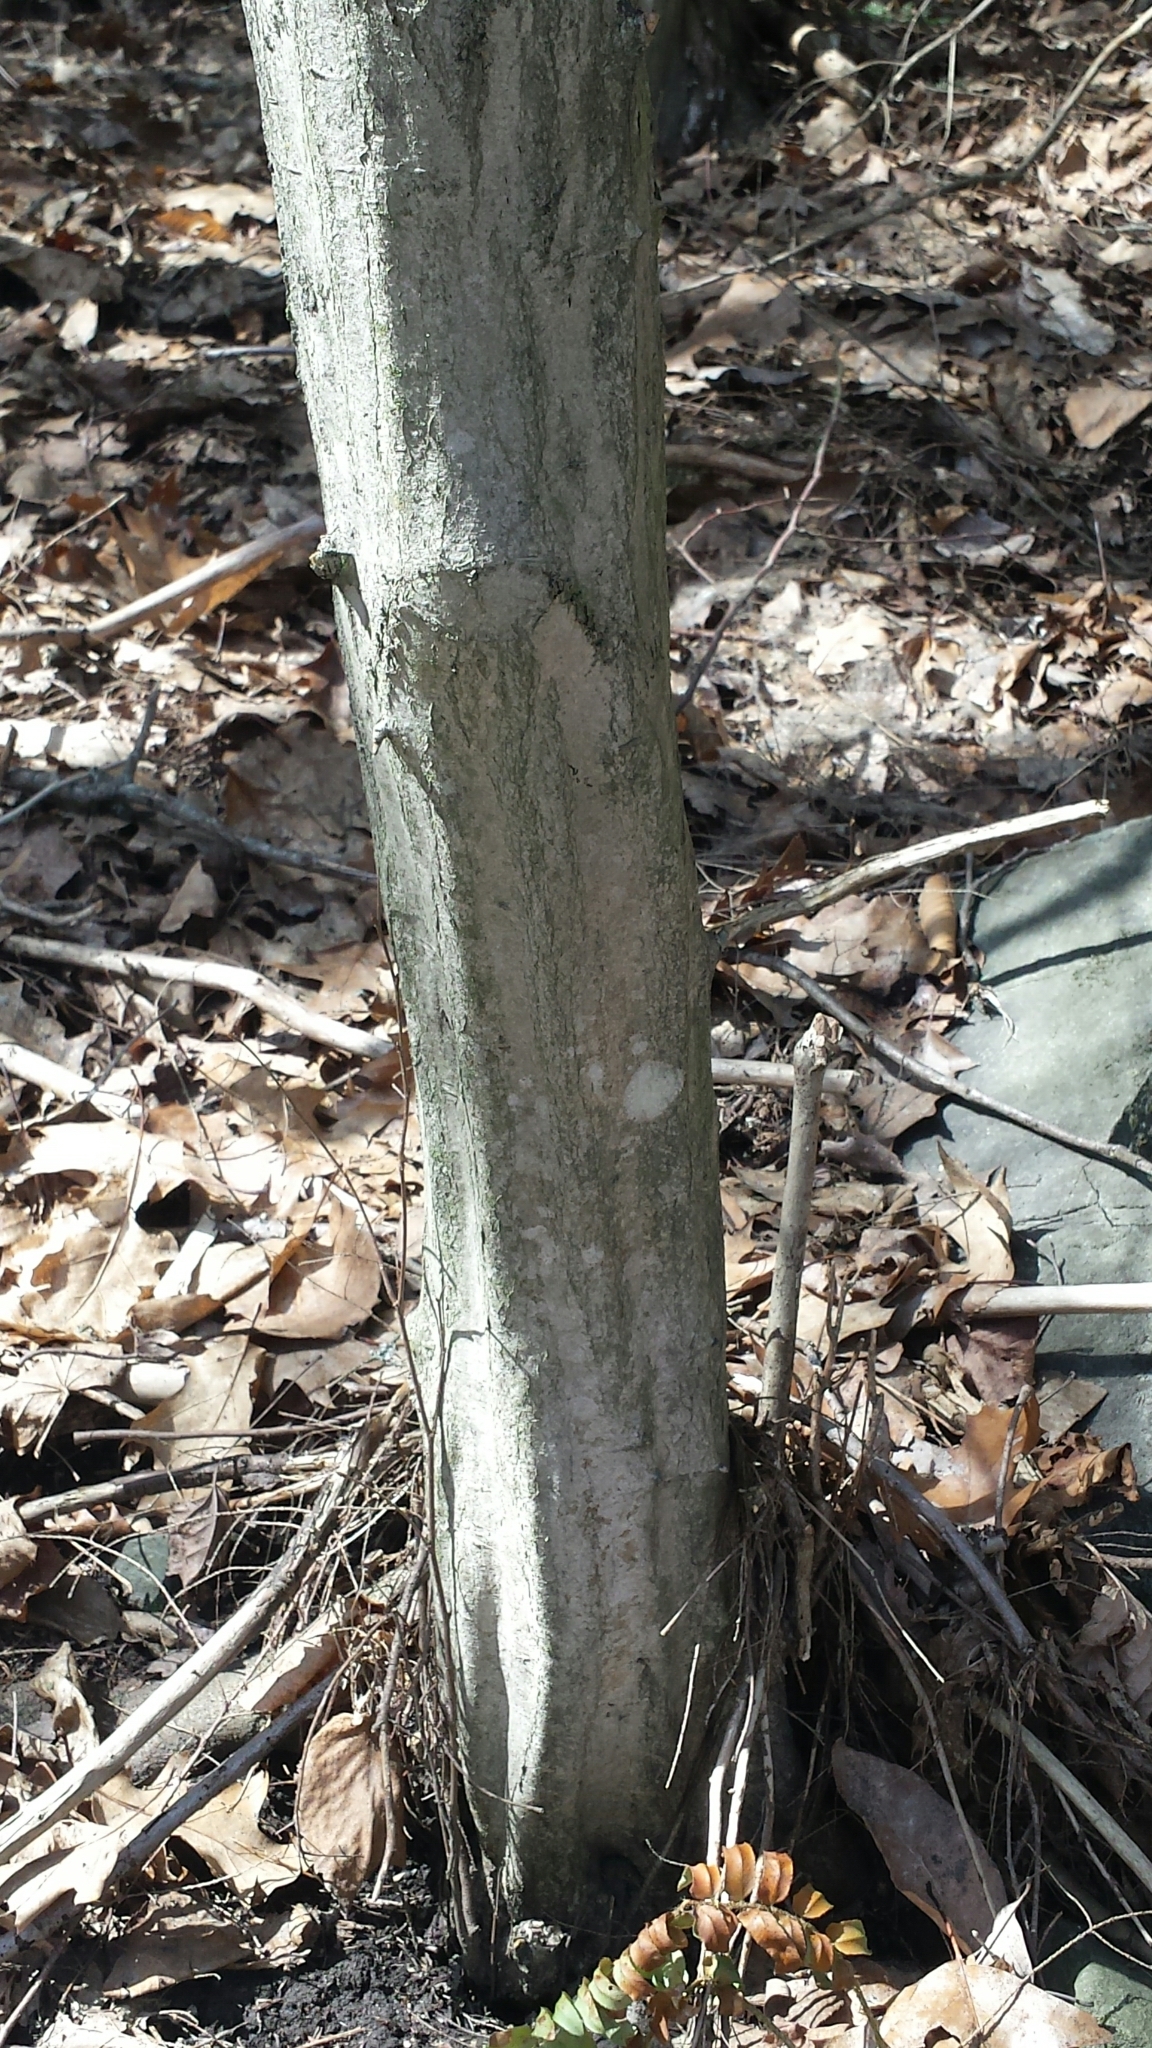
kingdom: Plantae
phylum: Tracheophyta
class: Magnoliopsida
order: Fagales
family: Betulaceae
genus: Carpinus
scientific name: Carpinus caroliniana
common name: American hornbeam
